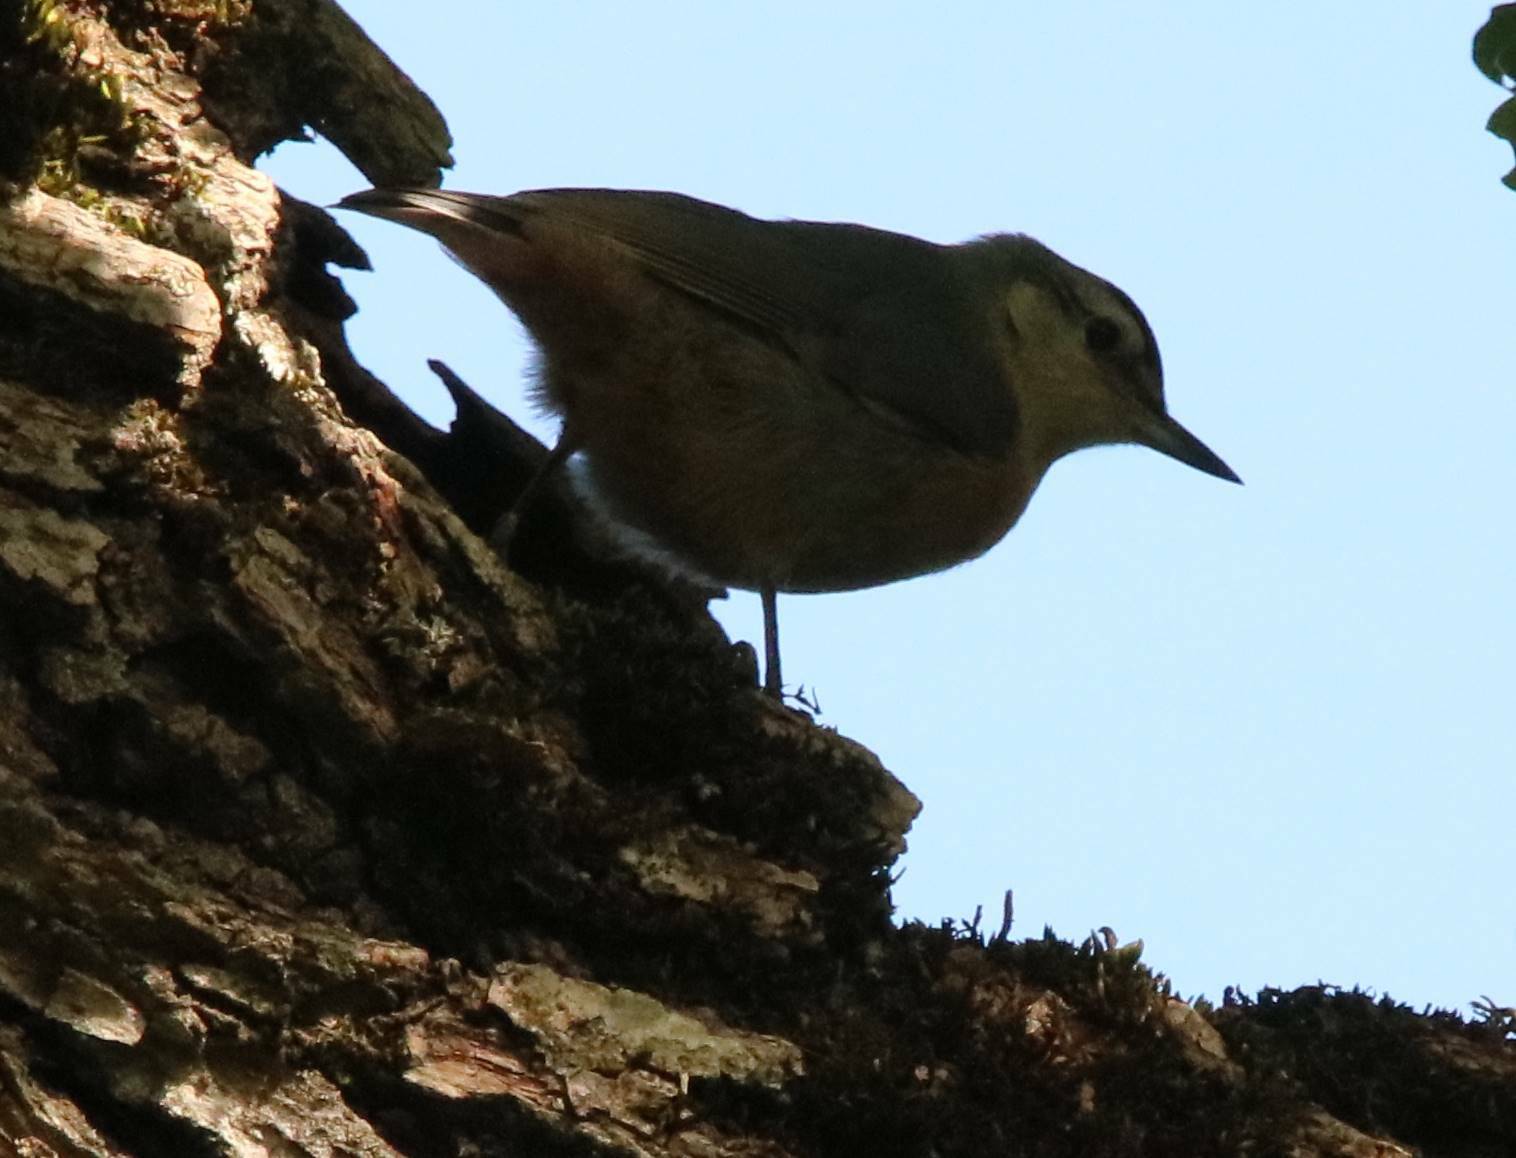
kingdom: Animalia
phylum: Chordata
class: Aves
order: Passeriformes
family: Sittidae
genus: Sitta
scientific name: Sitta ledanti
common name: Algerian nuthatch
